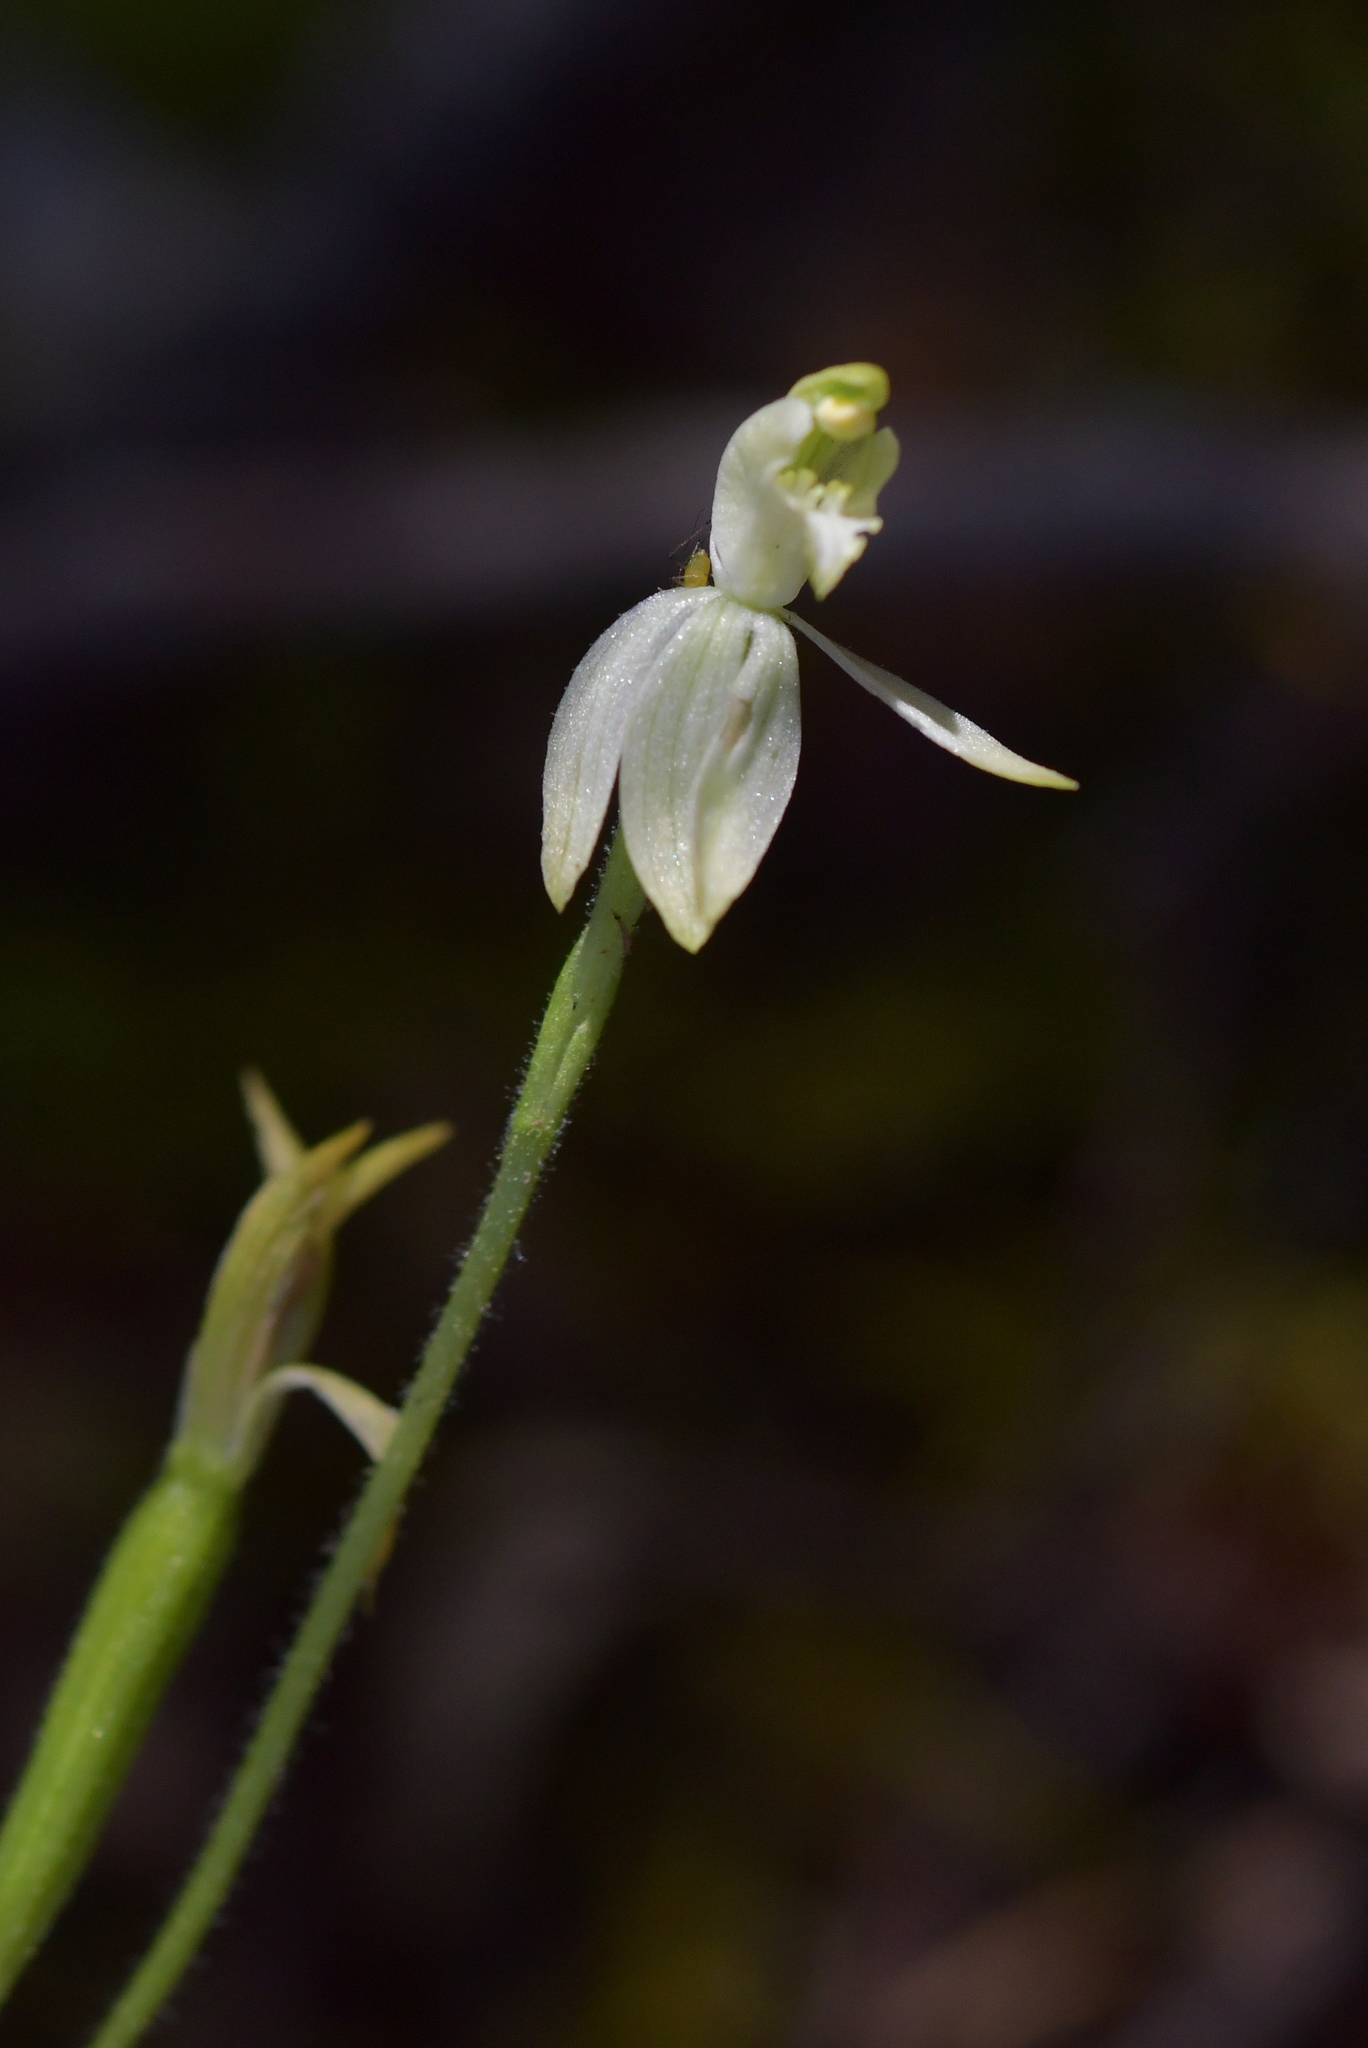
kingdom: Plantae
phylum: Tracheophyta
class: Liliopsida
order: Asparagales
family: Orchidaceae
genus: Caladenia
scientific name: Caladenia nothofageti
